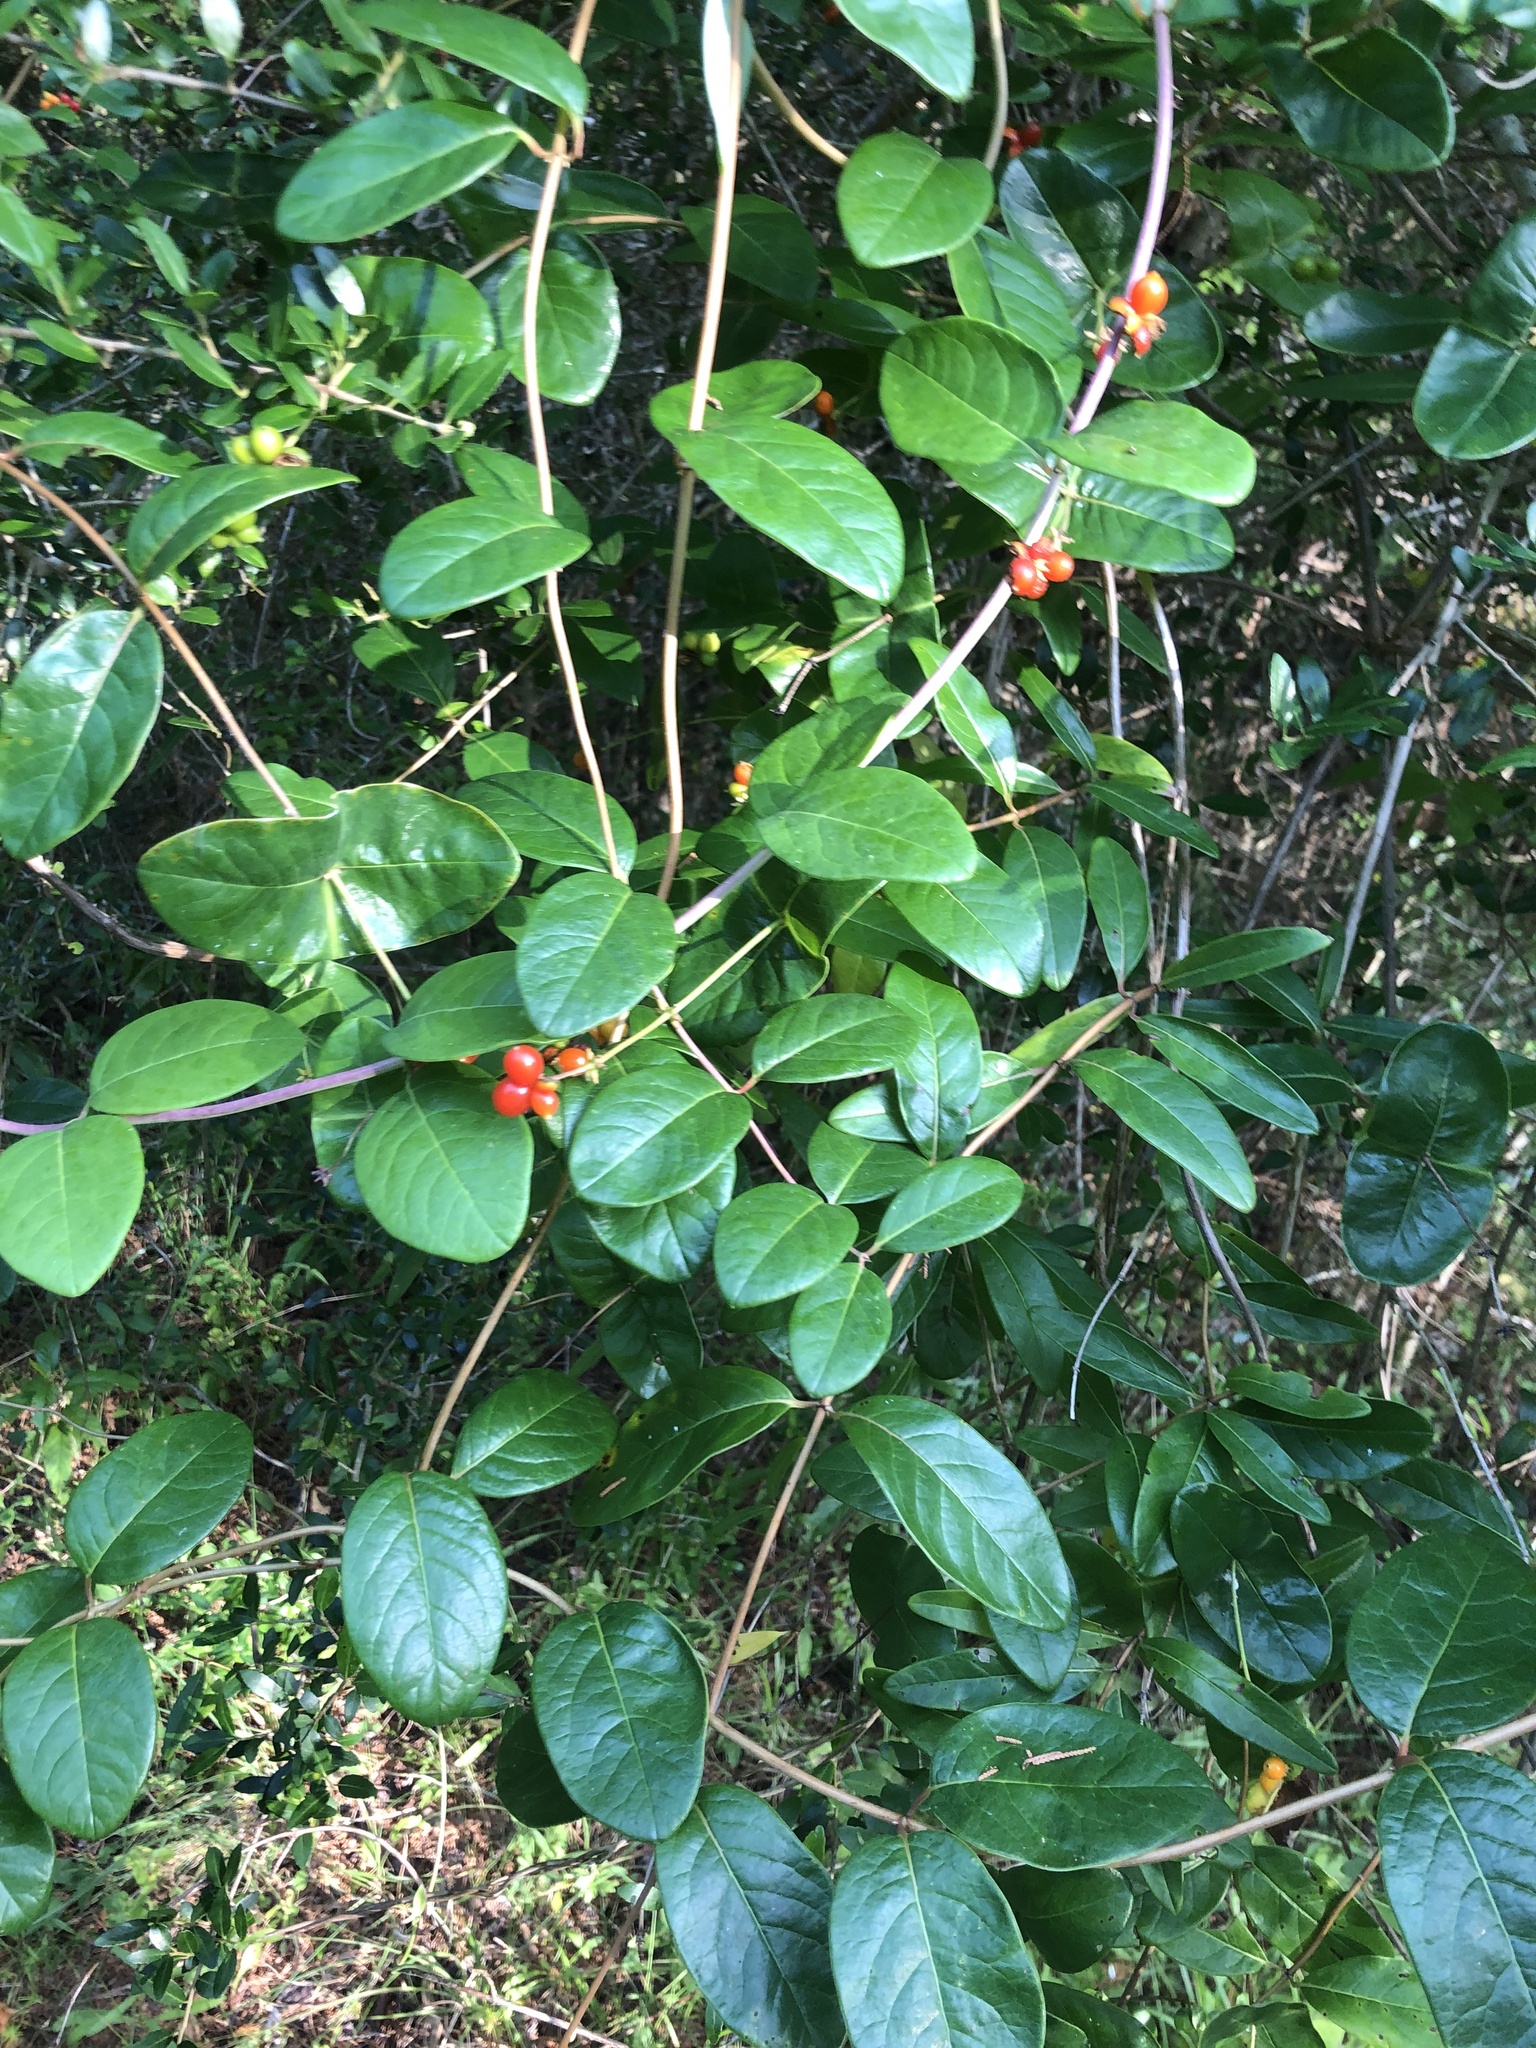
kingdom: Plantae
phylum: Tracheophyta
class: Magnoliopsida
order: Dipsacales
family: Caprifoliaceae
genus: Lonicera
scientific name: Lonicera sempervirens
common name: Coral honeysuckle
